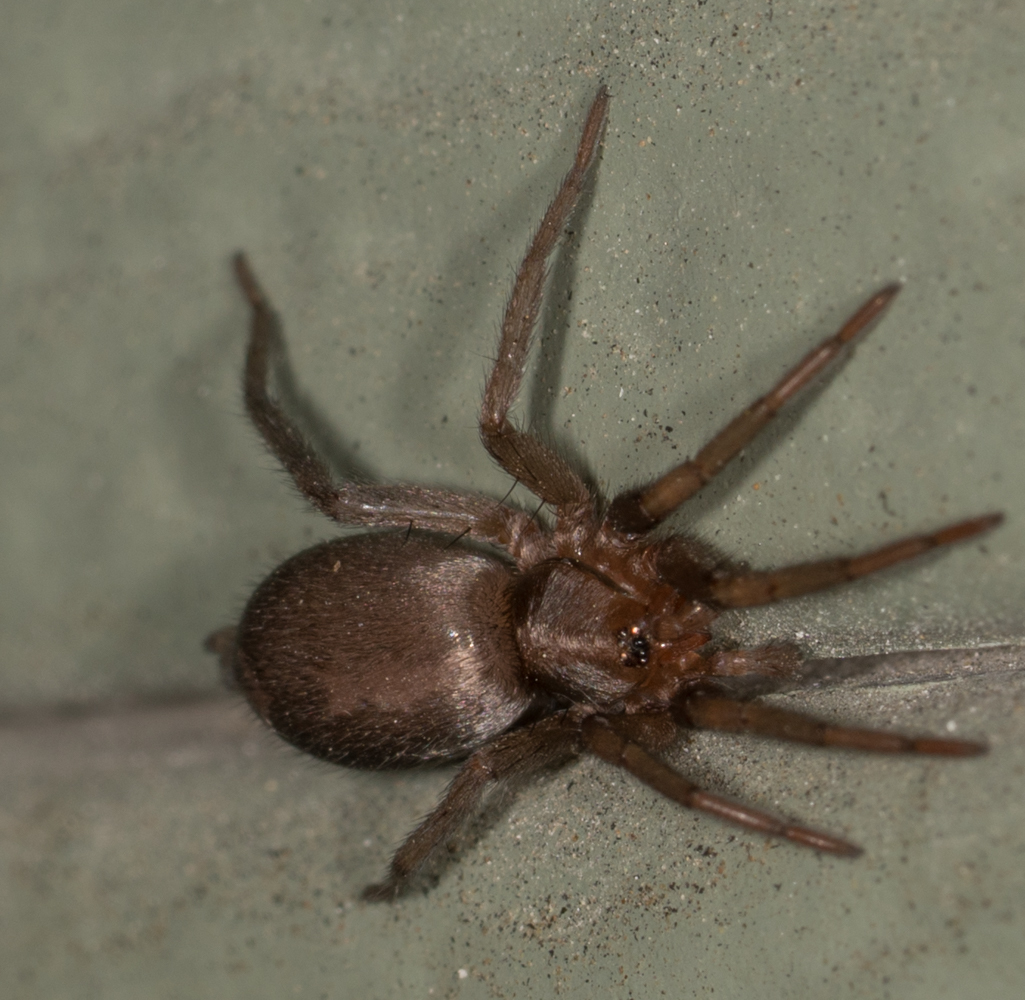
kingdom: Animalia
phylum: Arthropoda
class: Arachnida
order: Araneae
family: Gnaphosidae
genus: Herpyllus
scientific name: Herpyllus propinquus
